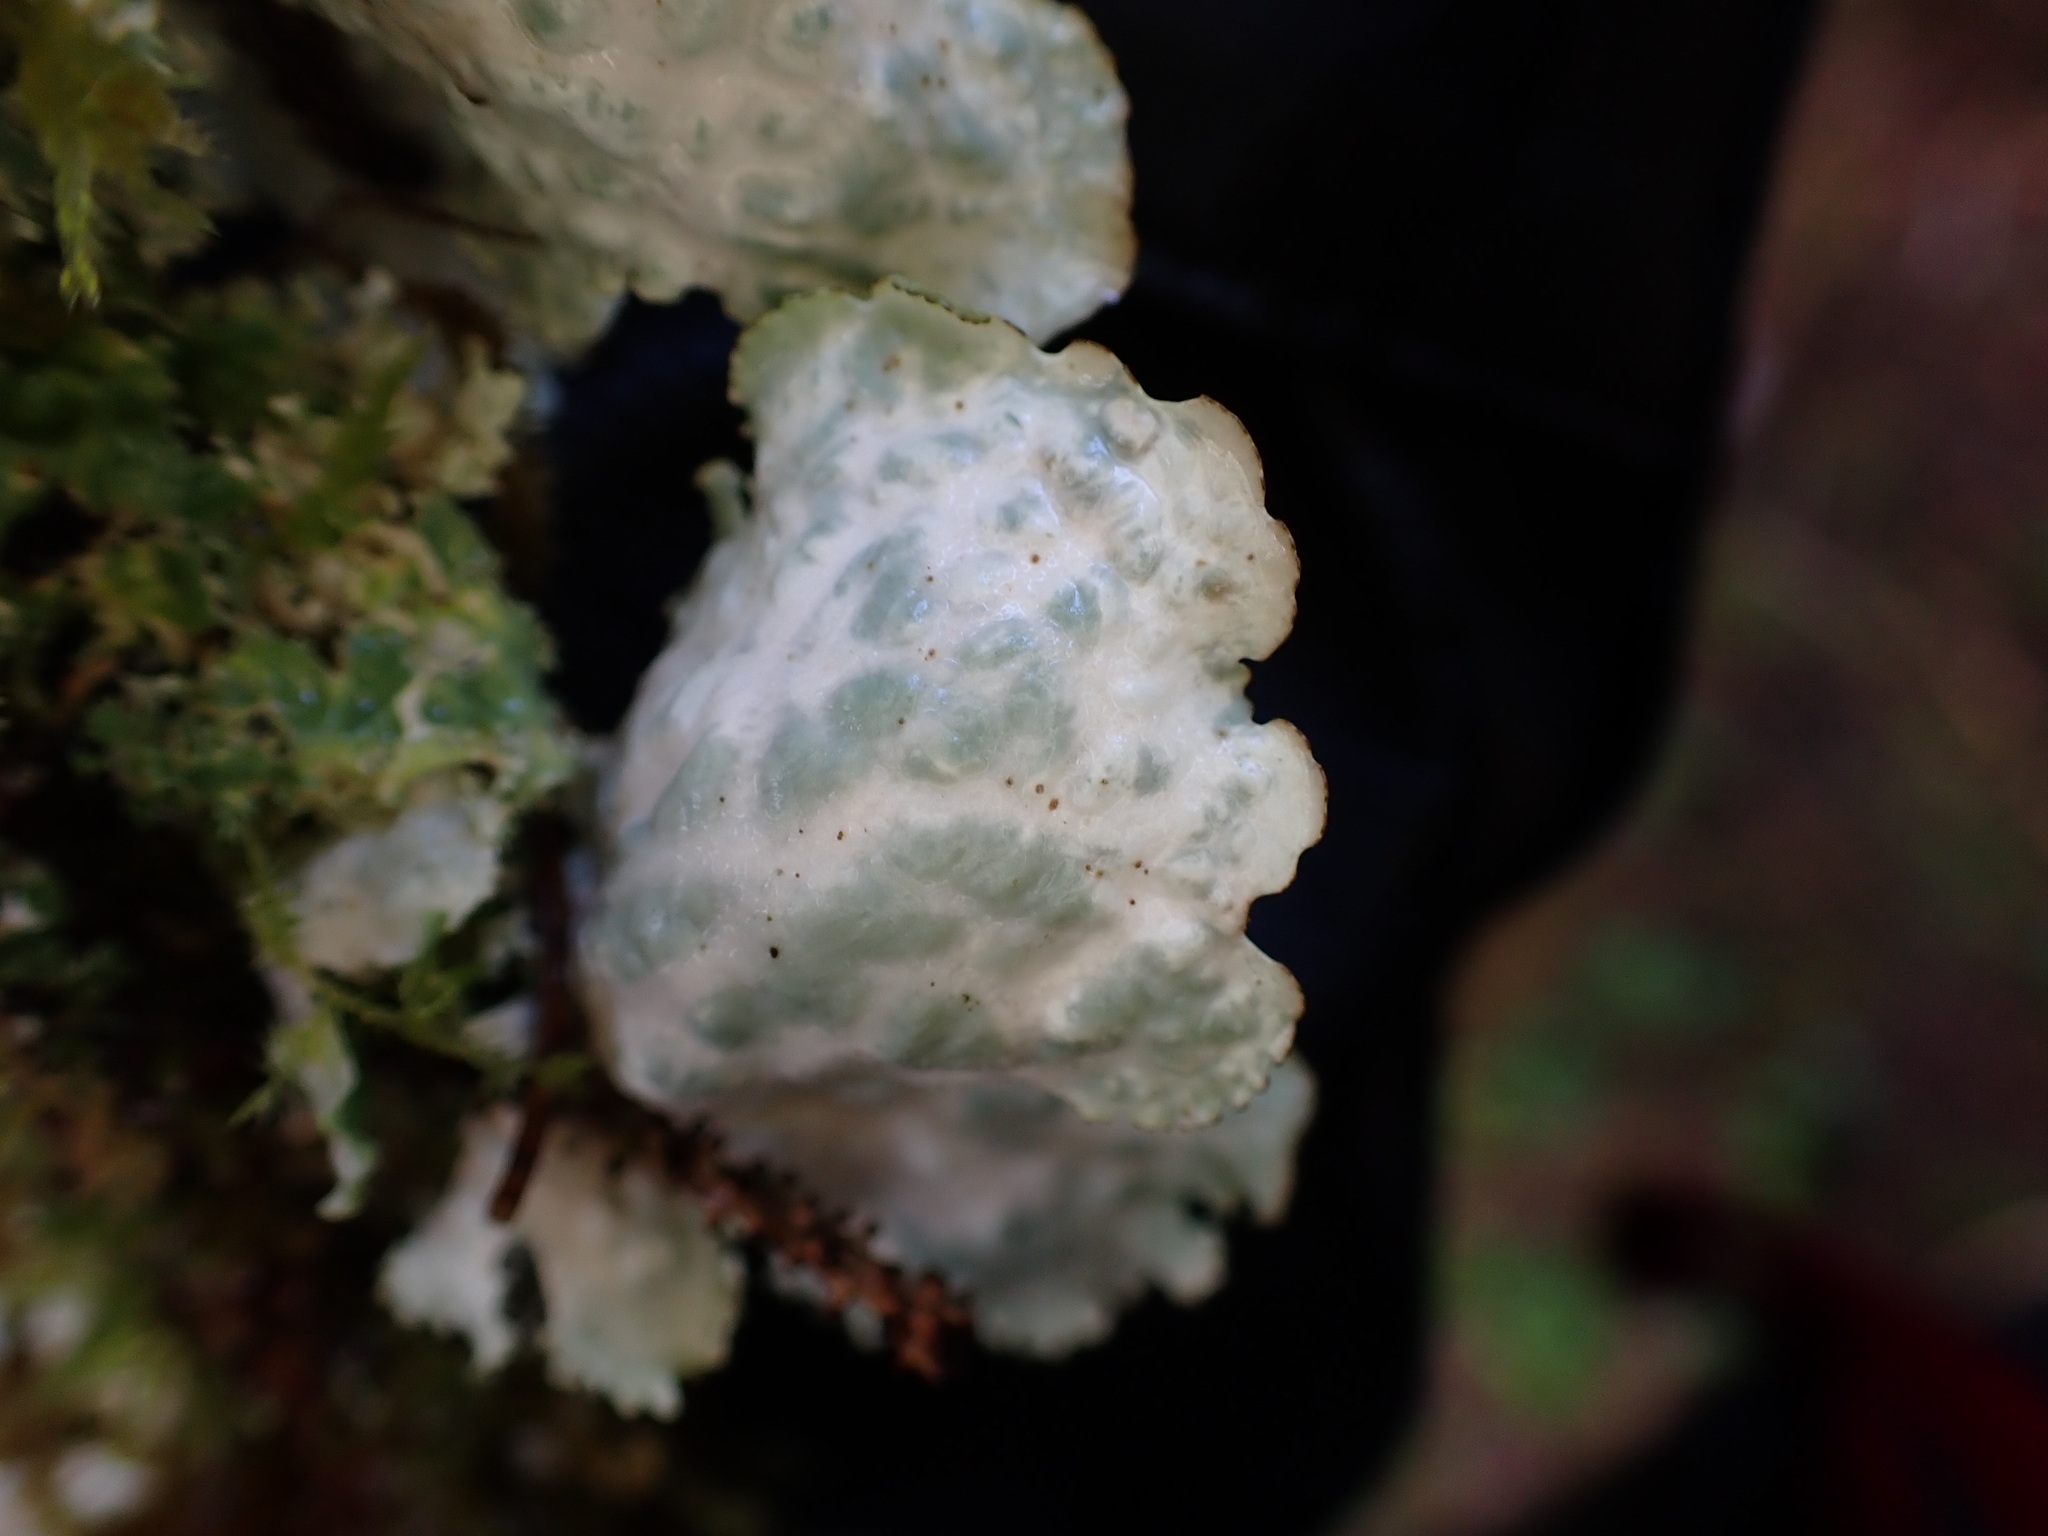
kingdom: Fungi
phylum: Ascomycota
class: Lecanoromycetes
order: Peltigerales
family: Lobariaceae
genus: Lobaria
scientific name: Lobaria oregana
